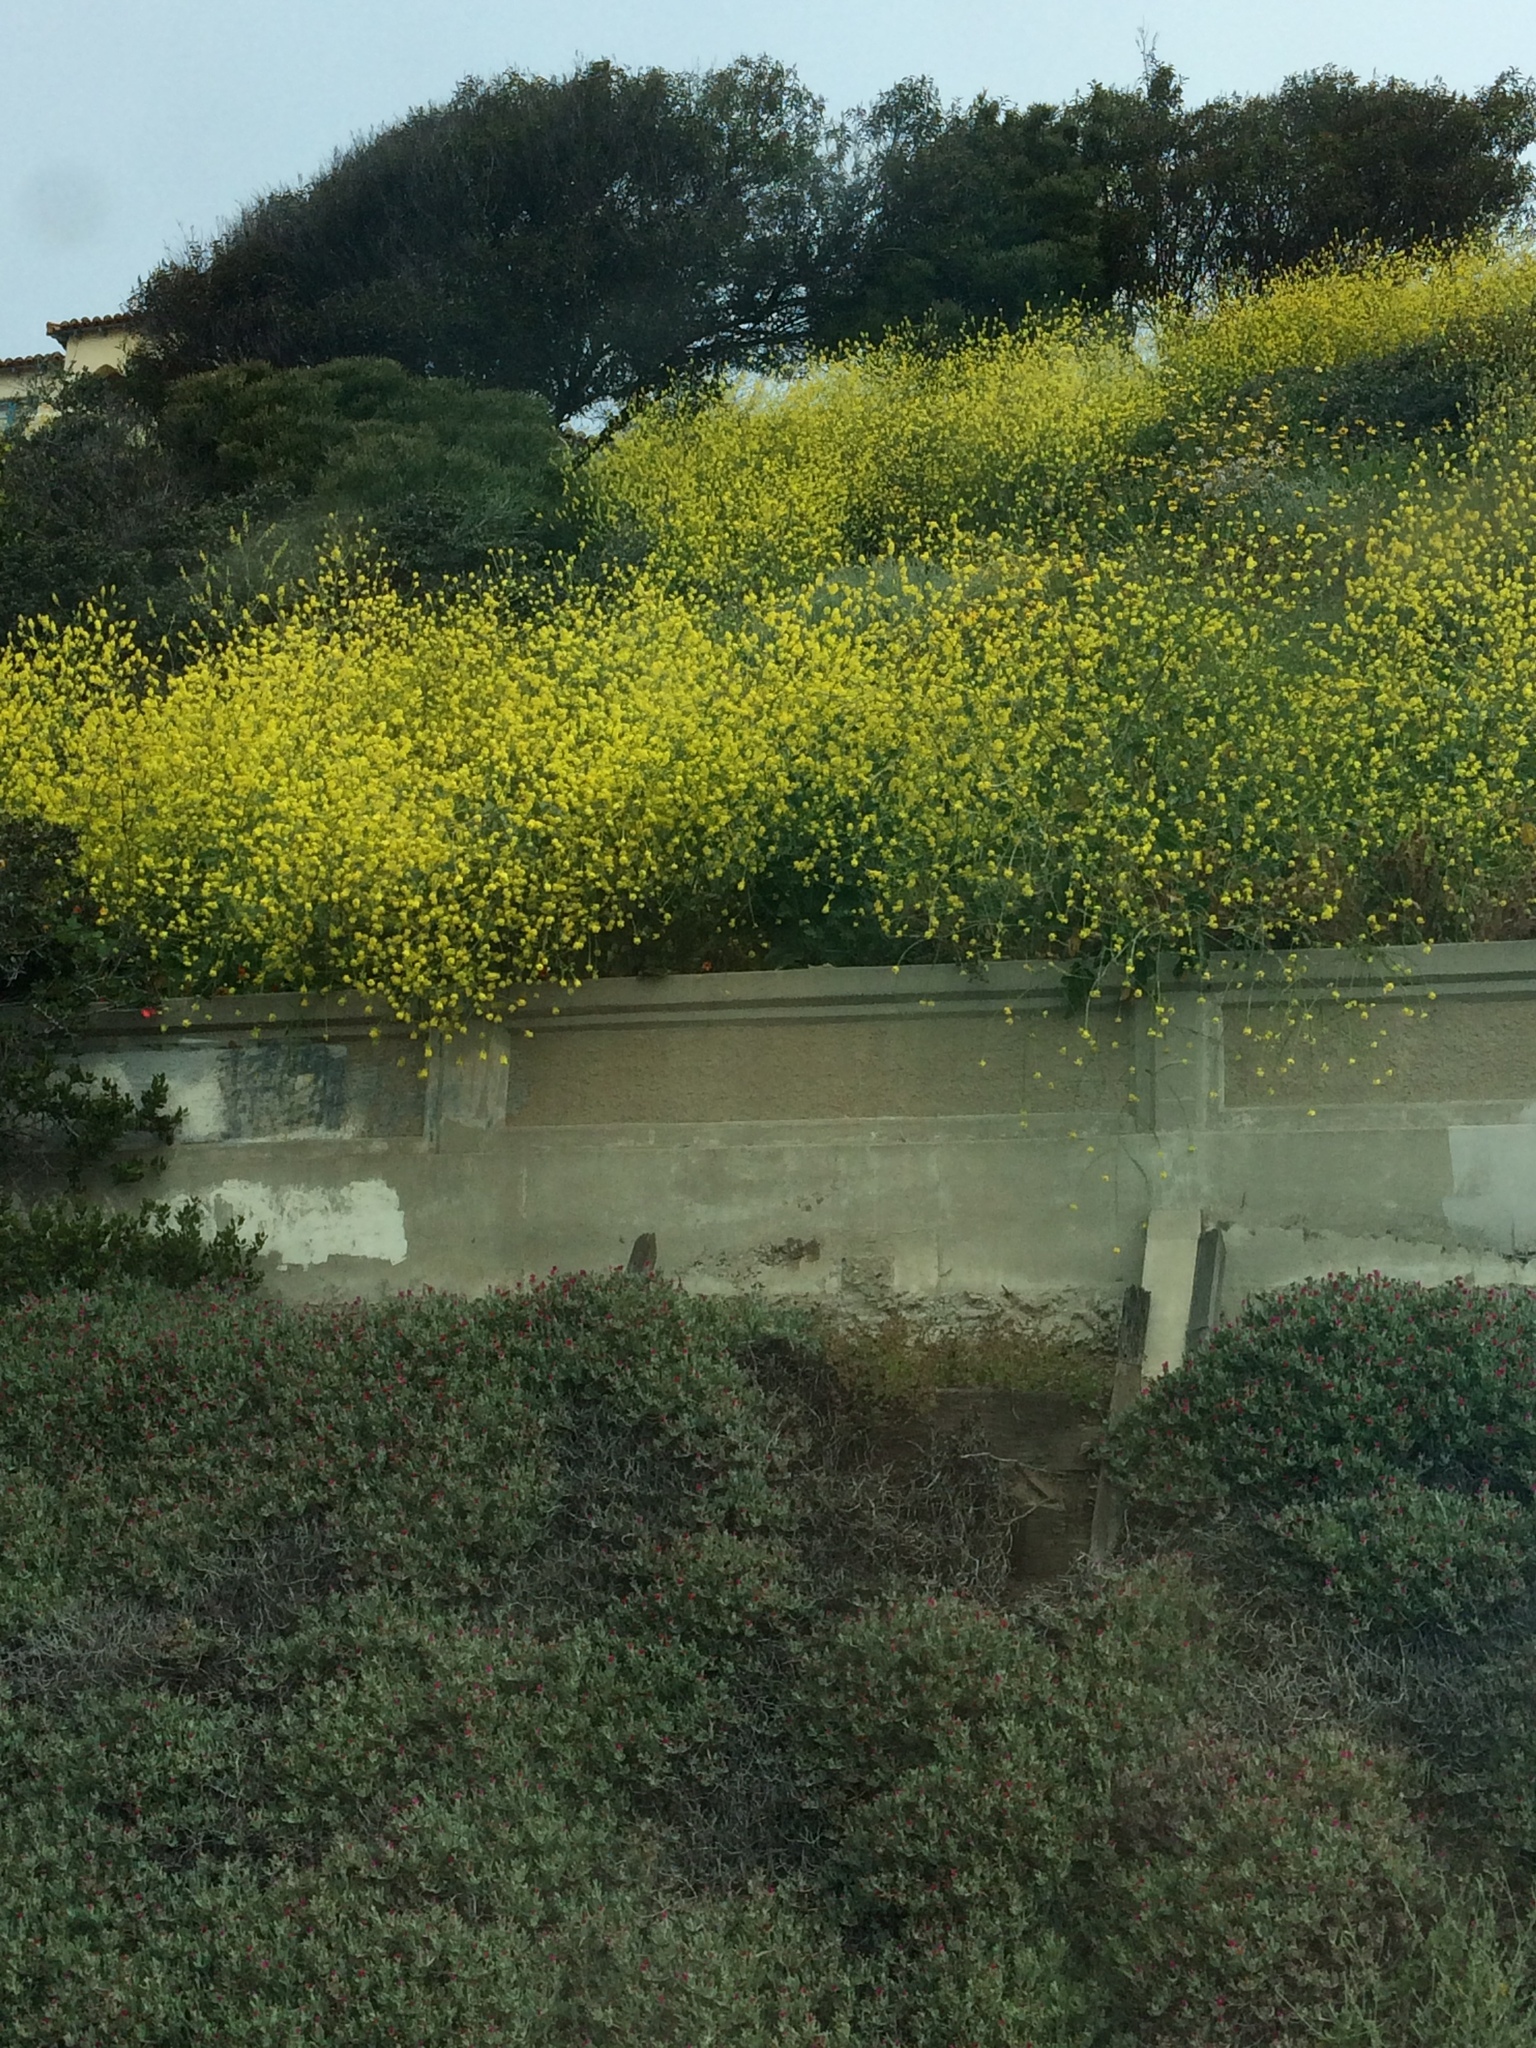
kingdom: Plantae
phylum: Tracheophyta
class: Magnoliopsida
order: Brassicales
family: Brassicaceae
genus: Brassica
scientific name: Brassica nigra
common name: Black mustard
